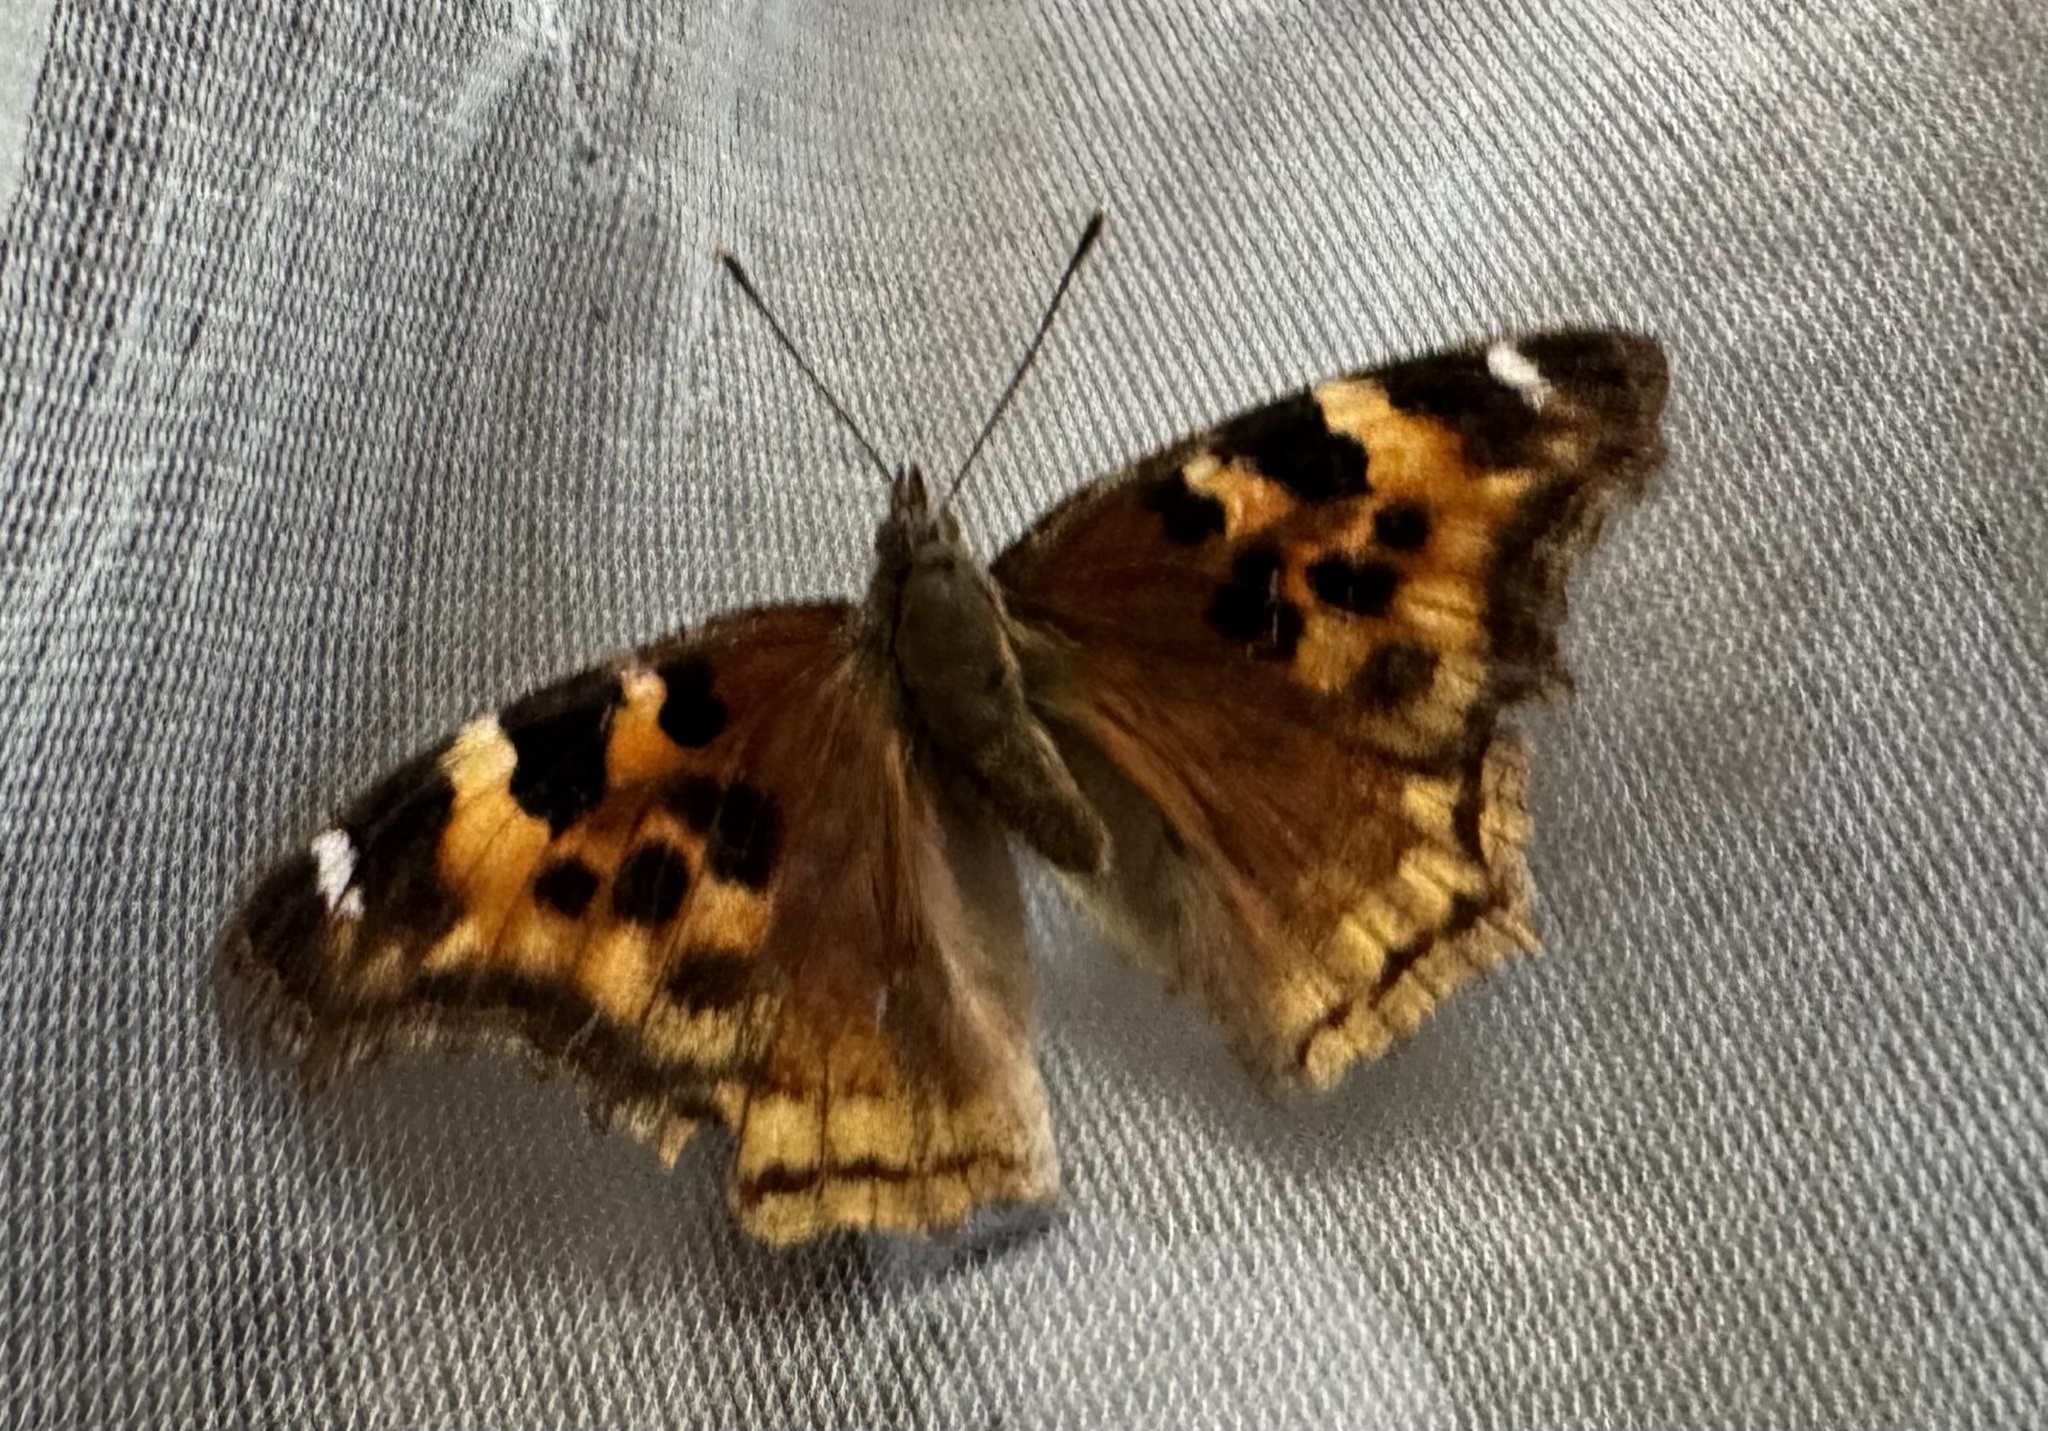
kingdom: Animalia
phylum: Arthropoda
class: Insecta
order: Lepidoptera
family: Nymphalidae
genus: Polygonia
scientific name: Polygonia vaualbum
